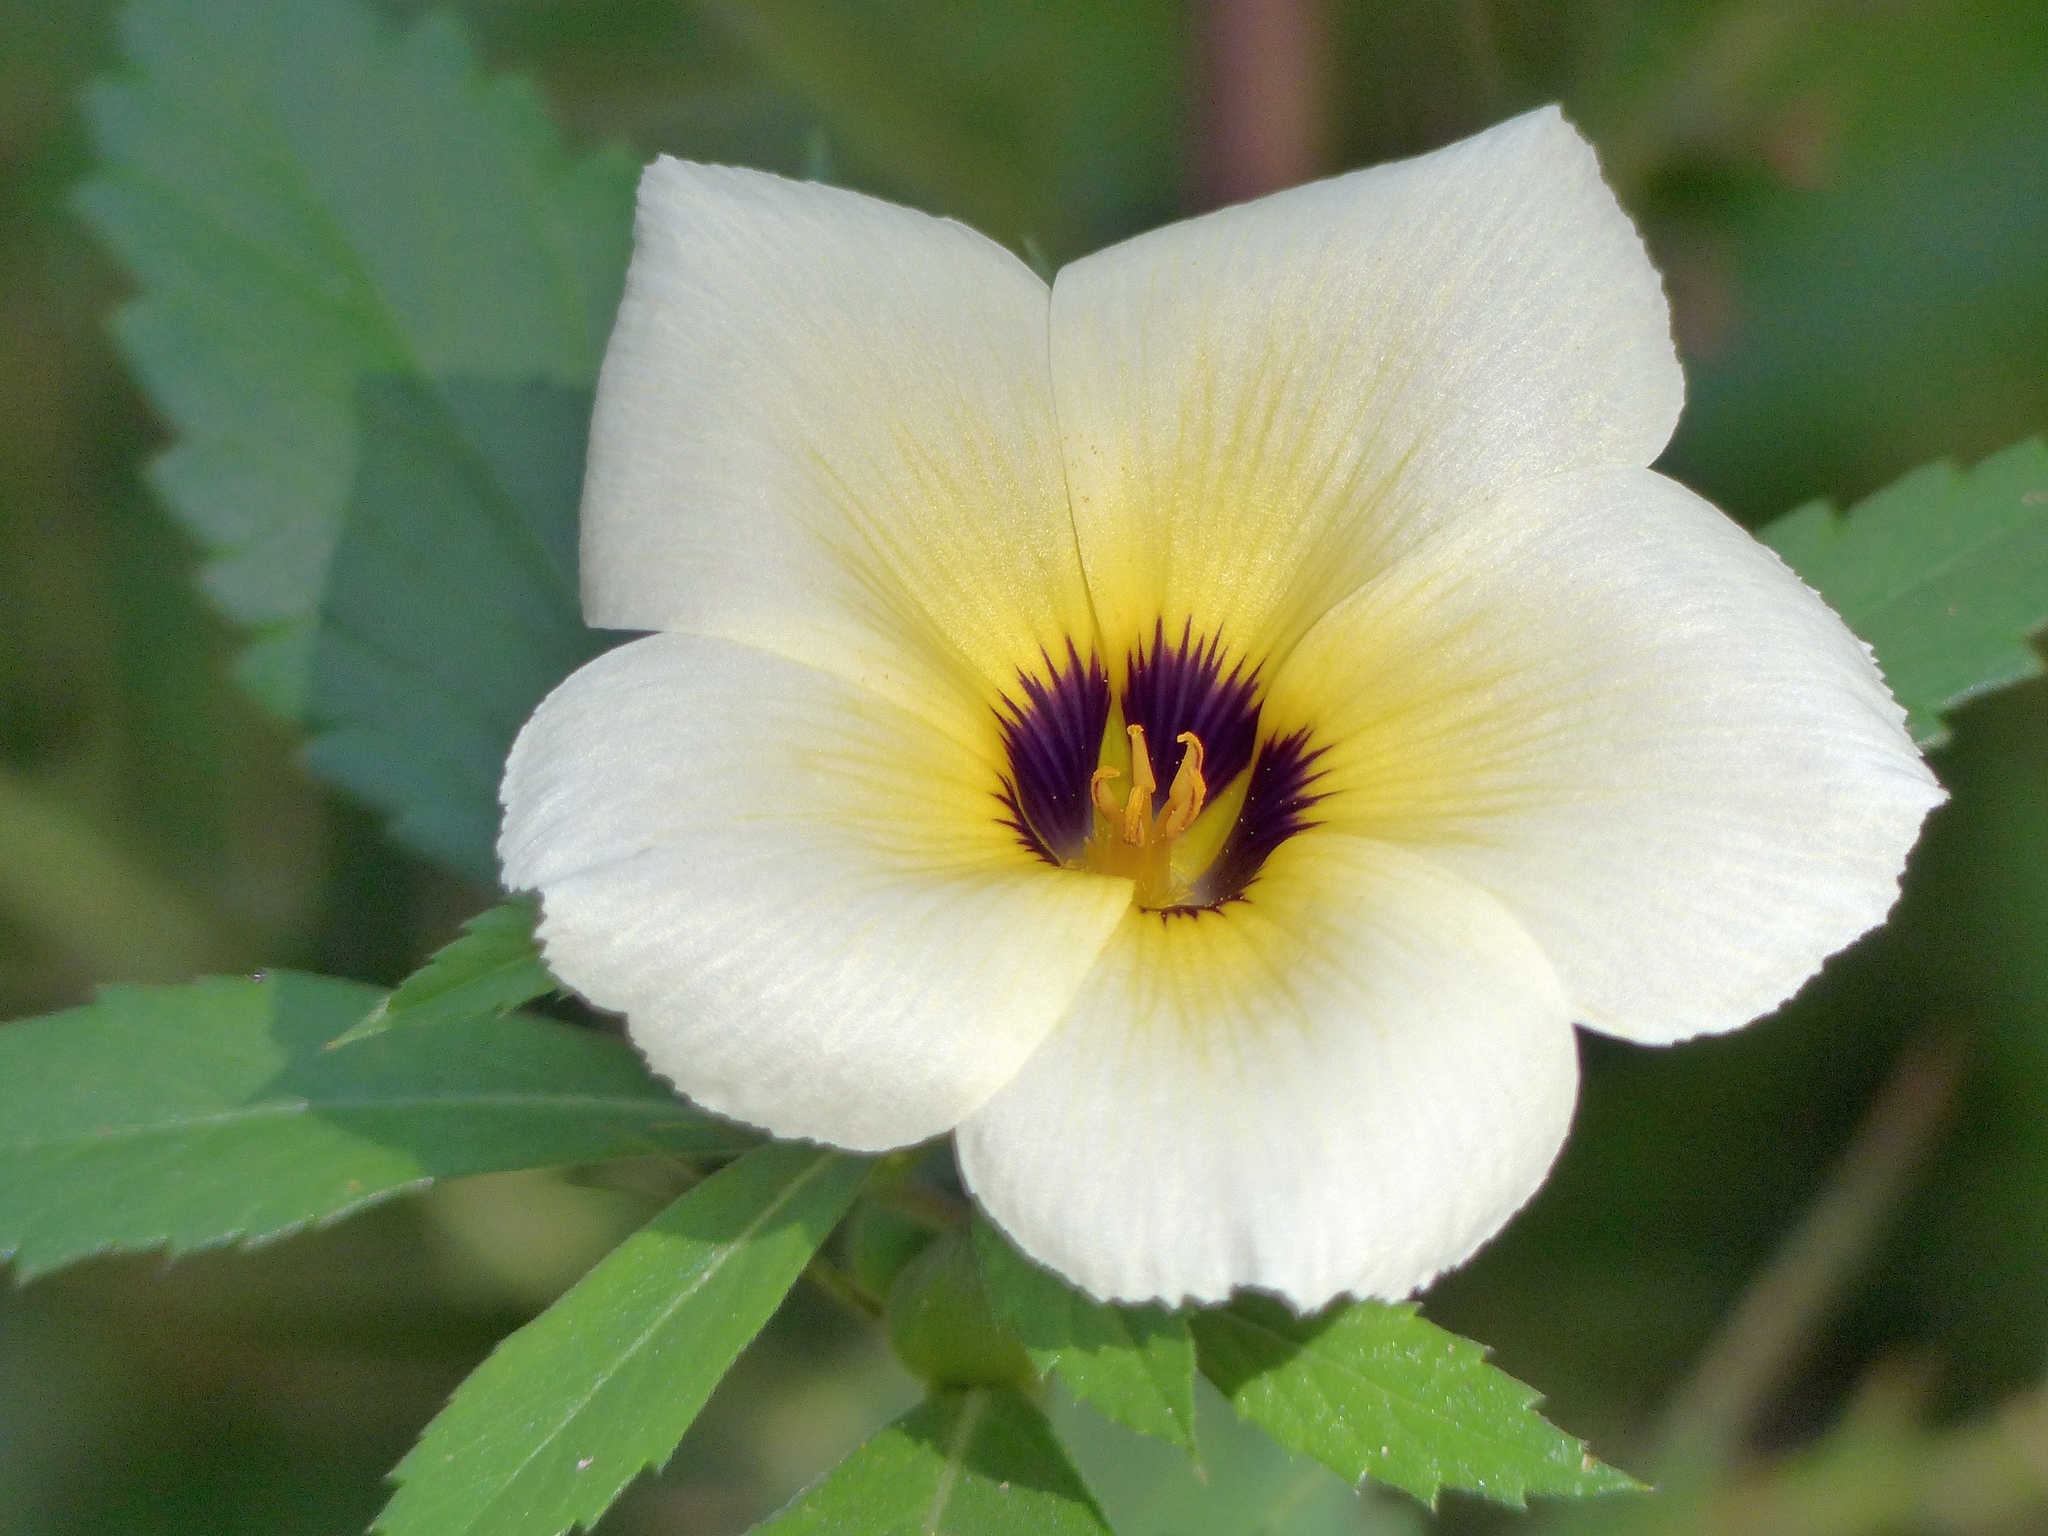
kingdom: Plantae
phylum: Tracheophyta
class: Magnoliopsida
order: Malpighiales
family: Turneraceae
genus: Turnera
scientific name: Turnera subulata
